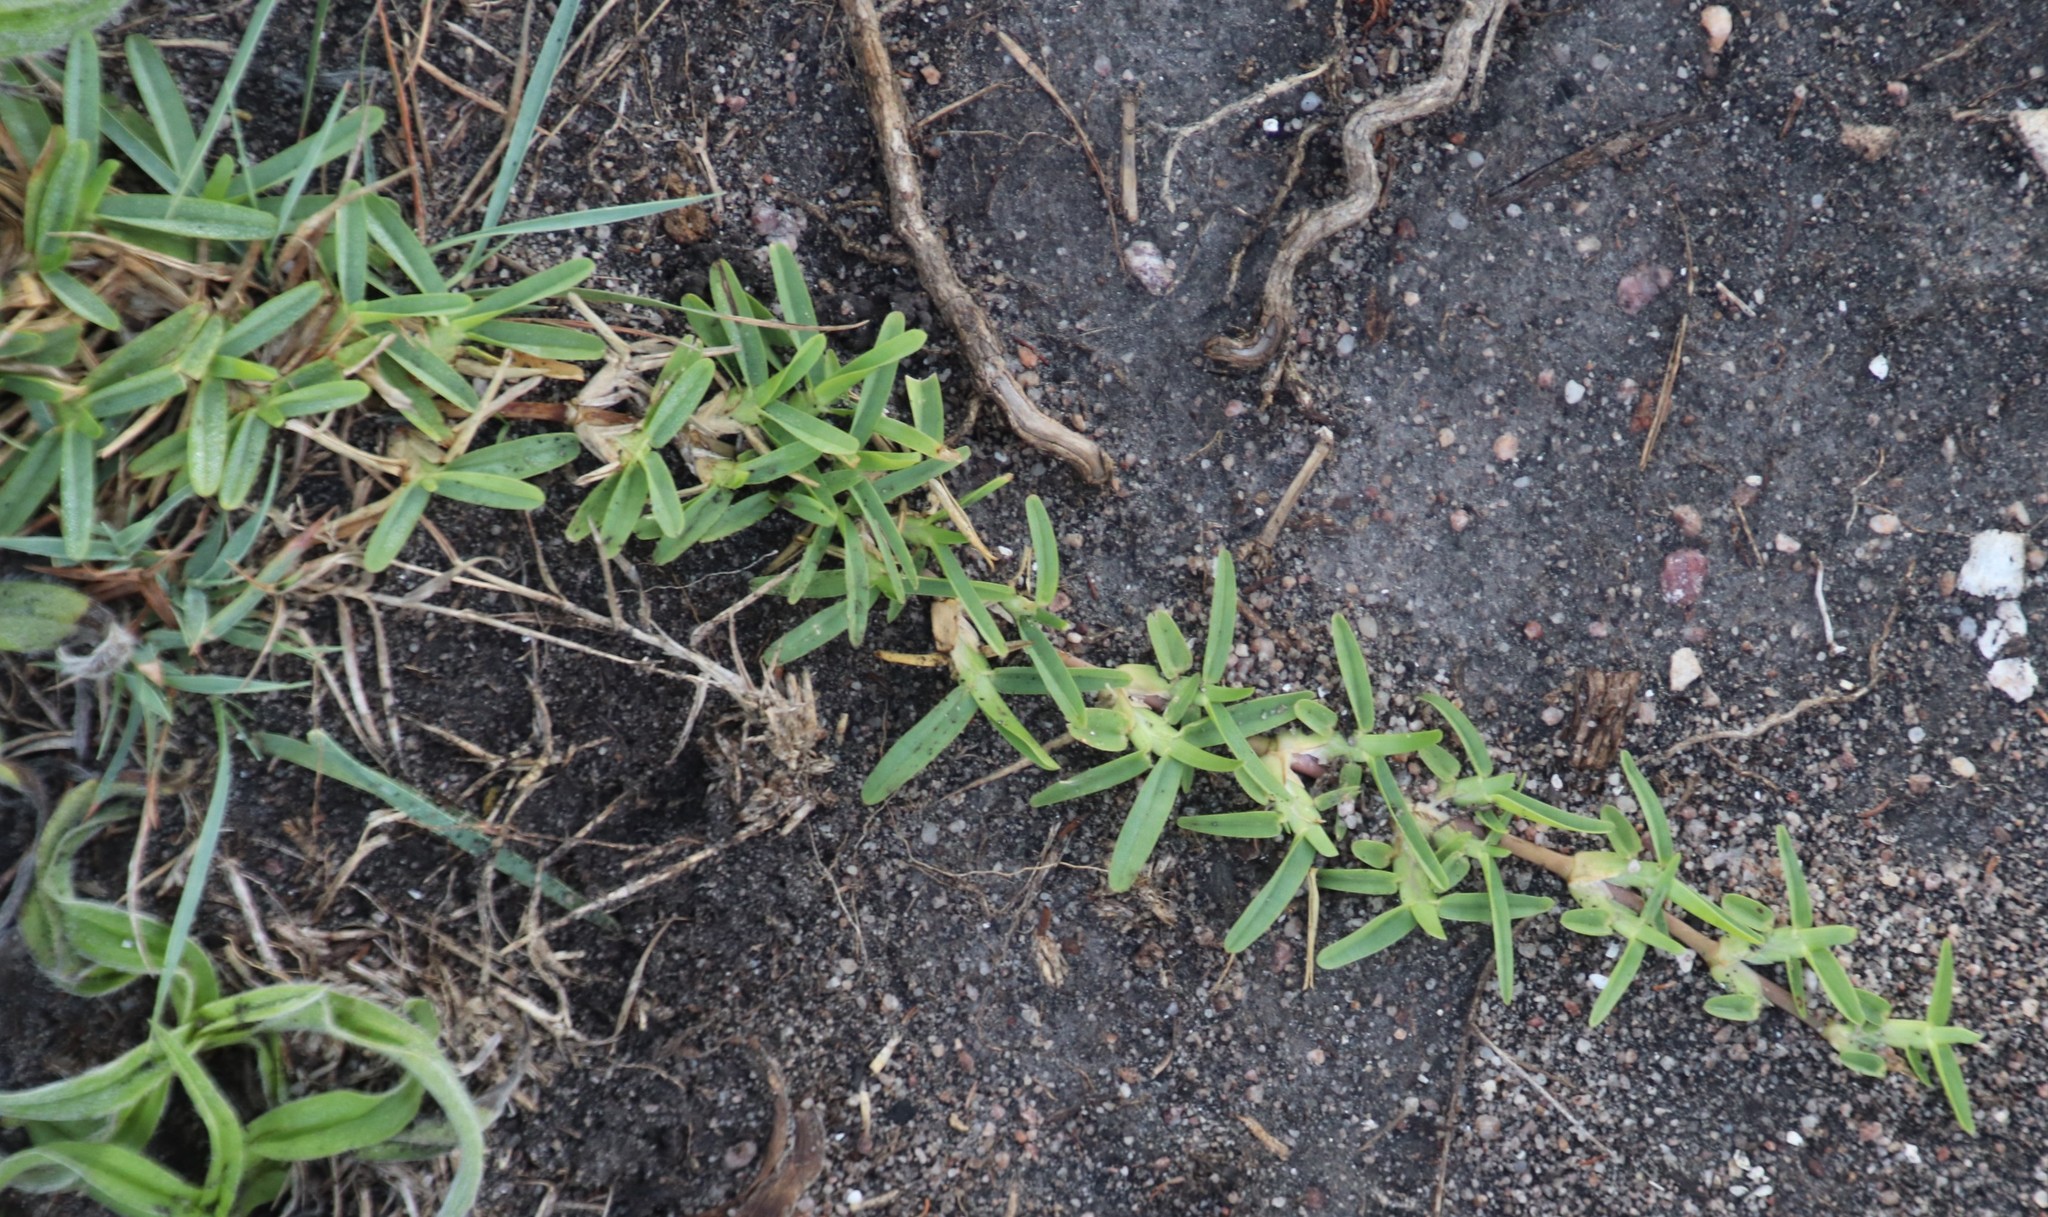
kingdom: Plantae
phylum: Tracheophyta
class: Liliopsida
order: Poales
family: Poaceae
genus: Stenotaphrum
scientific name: Stenotaphrum secundatum
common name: St. augustine grass
